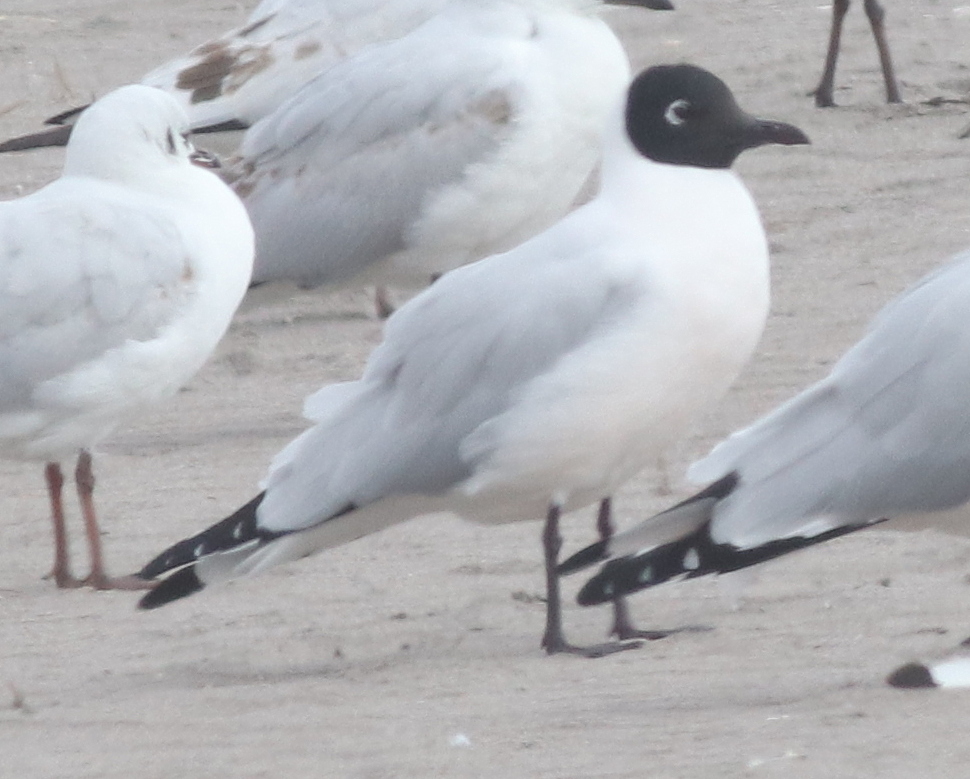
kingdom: Animalia
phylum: Chordata
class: Aves
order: Charadriiformes
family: Laridae
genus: Chroicocephalus
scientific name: Chroicocephalus serranus
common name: Andean gull
